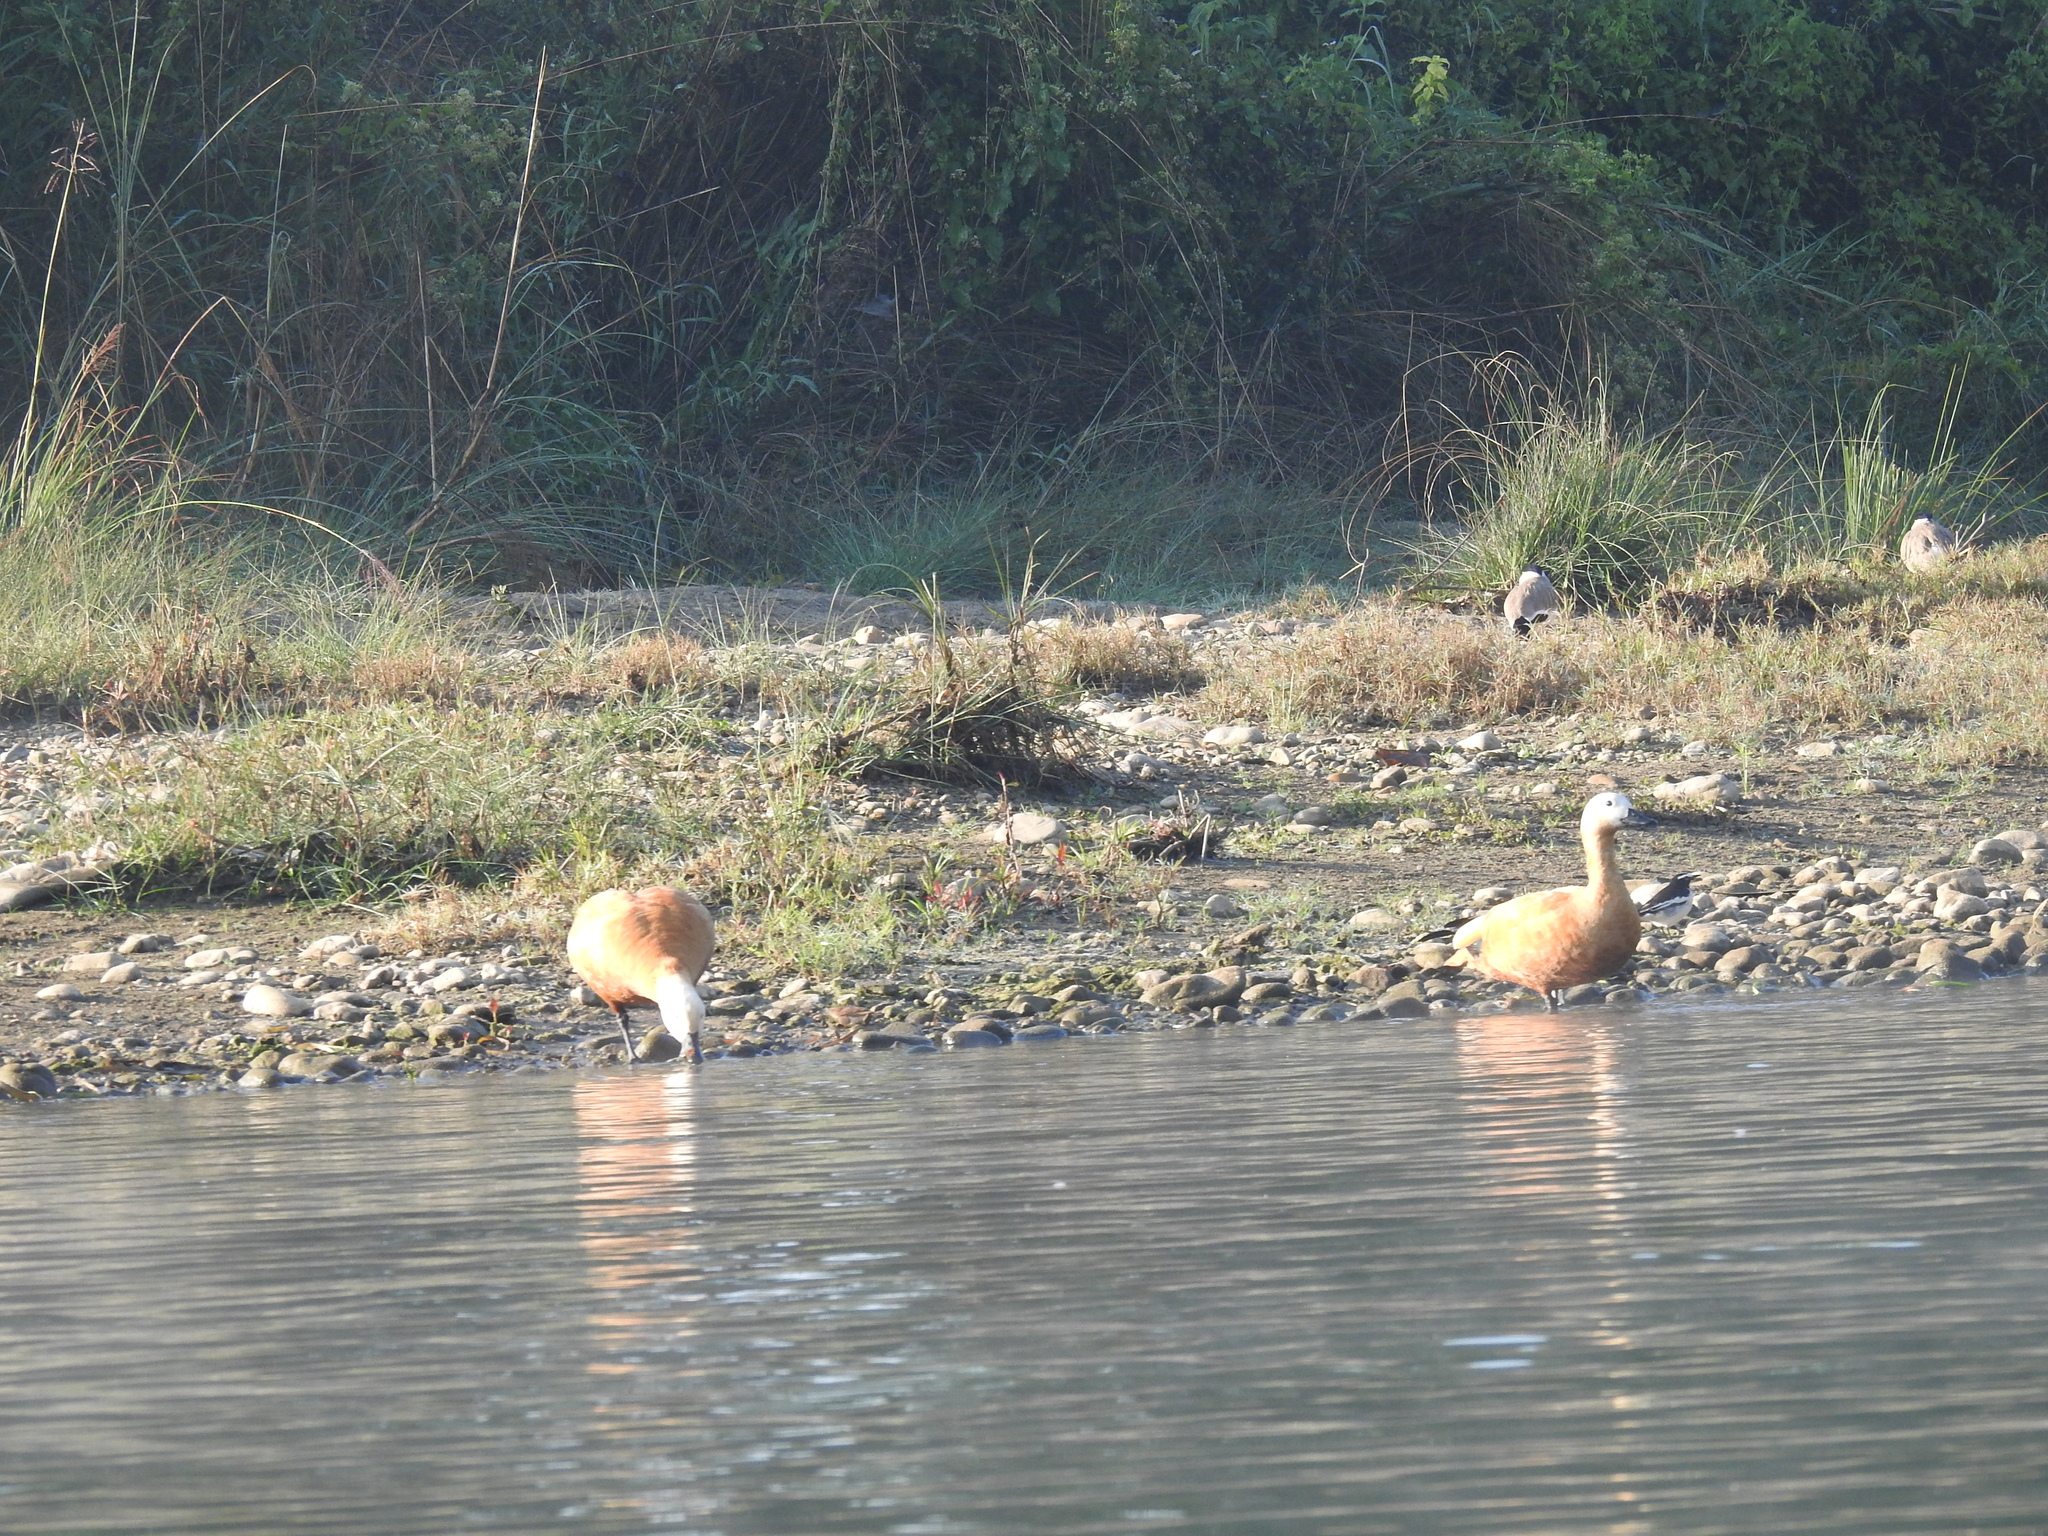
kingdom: Animalia
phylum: Chordata
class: Aves
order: Anseriformes
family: Anatidae
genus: Tadorna
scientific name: Tadorna ferruginea
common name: Ruddy shelduck
